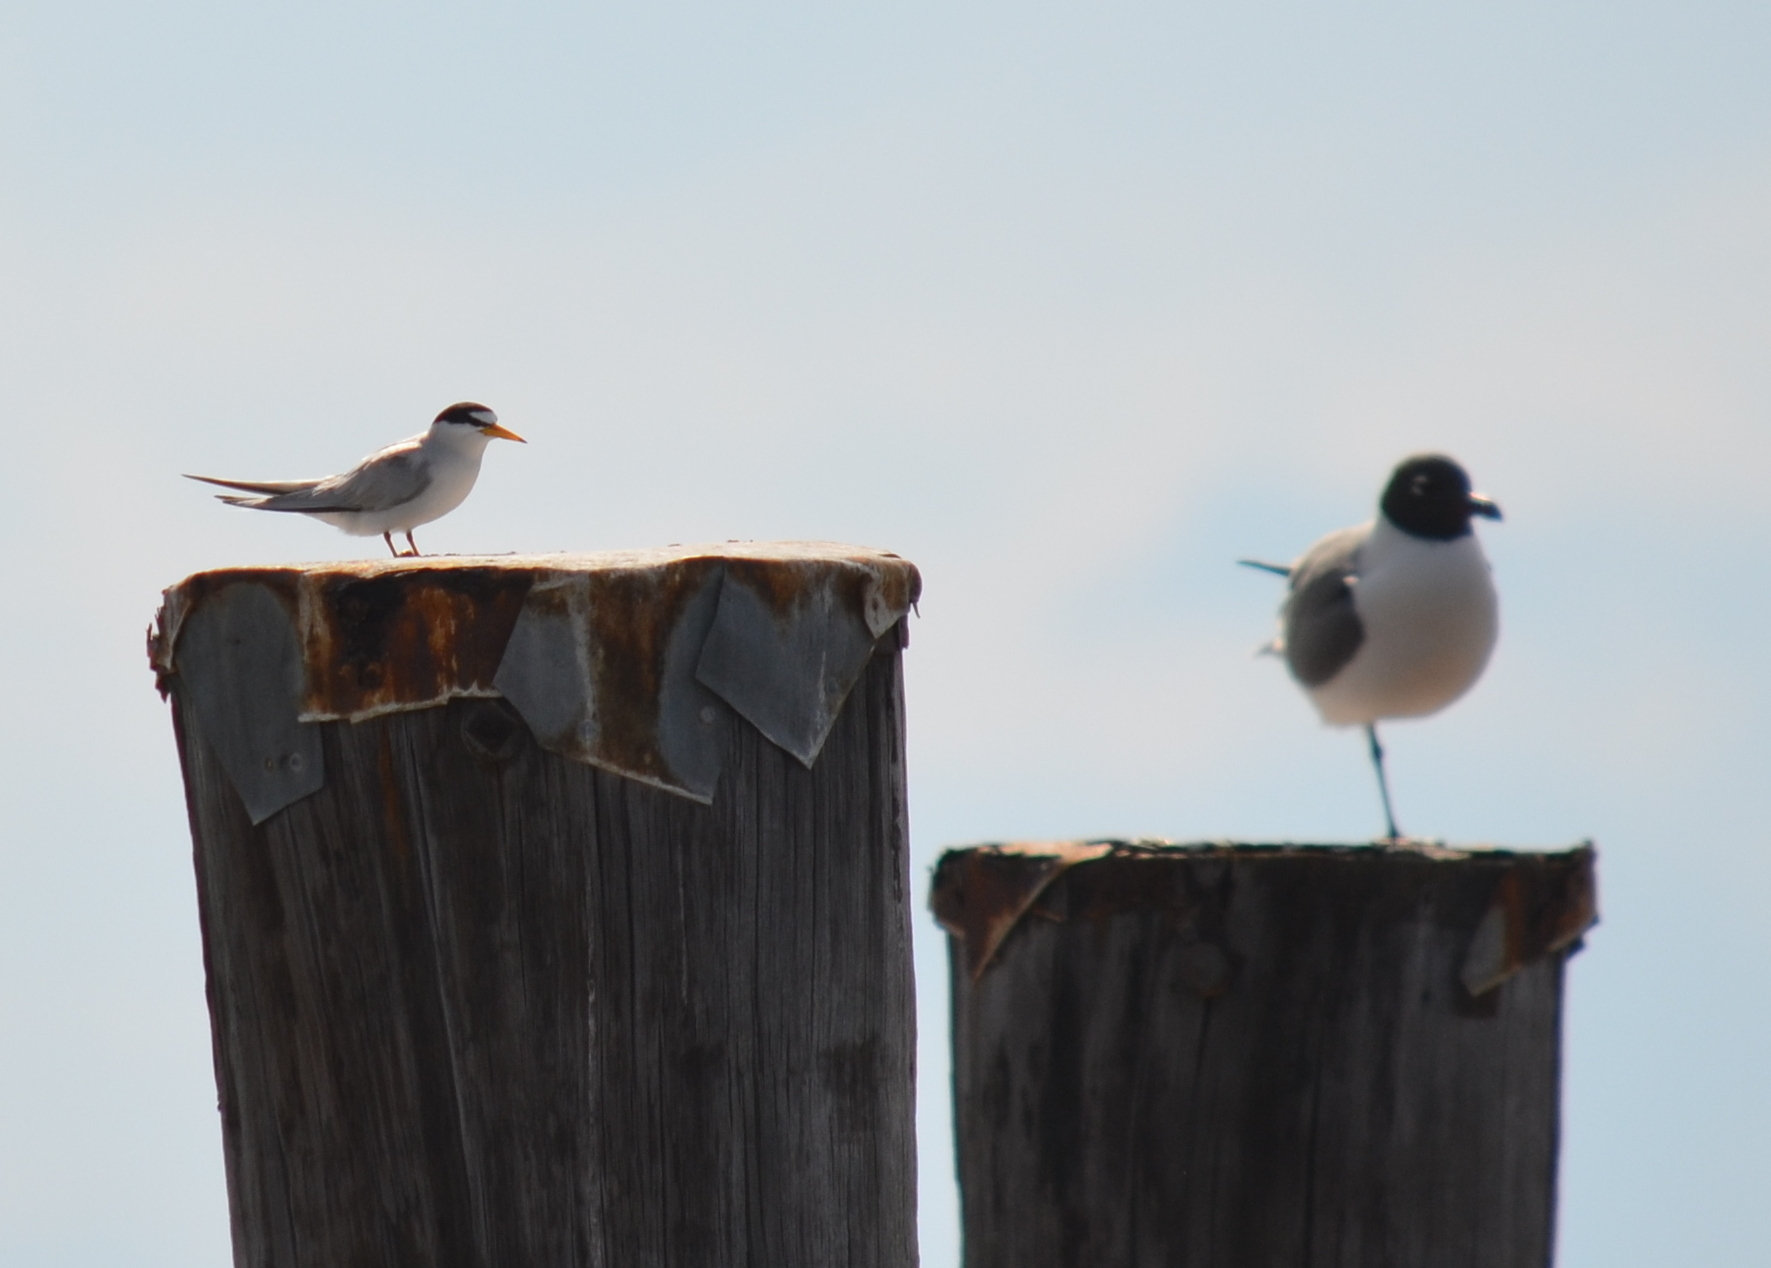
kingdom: Animalia
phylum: Chordata
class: Aves
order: Charadriiformes
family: Laridae
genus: Sternula
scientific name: Sternula antillarum
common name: Least tern
